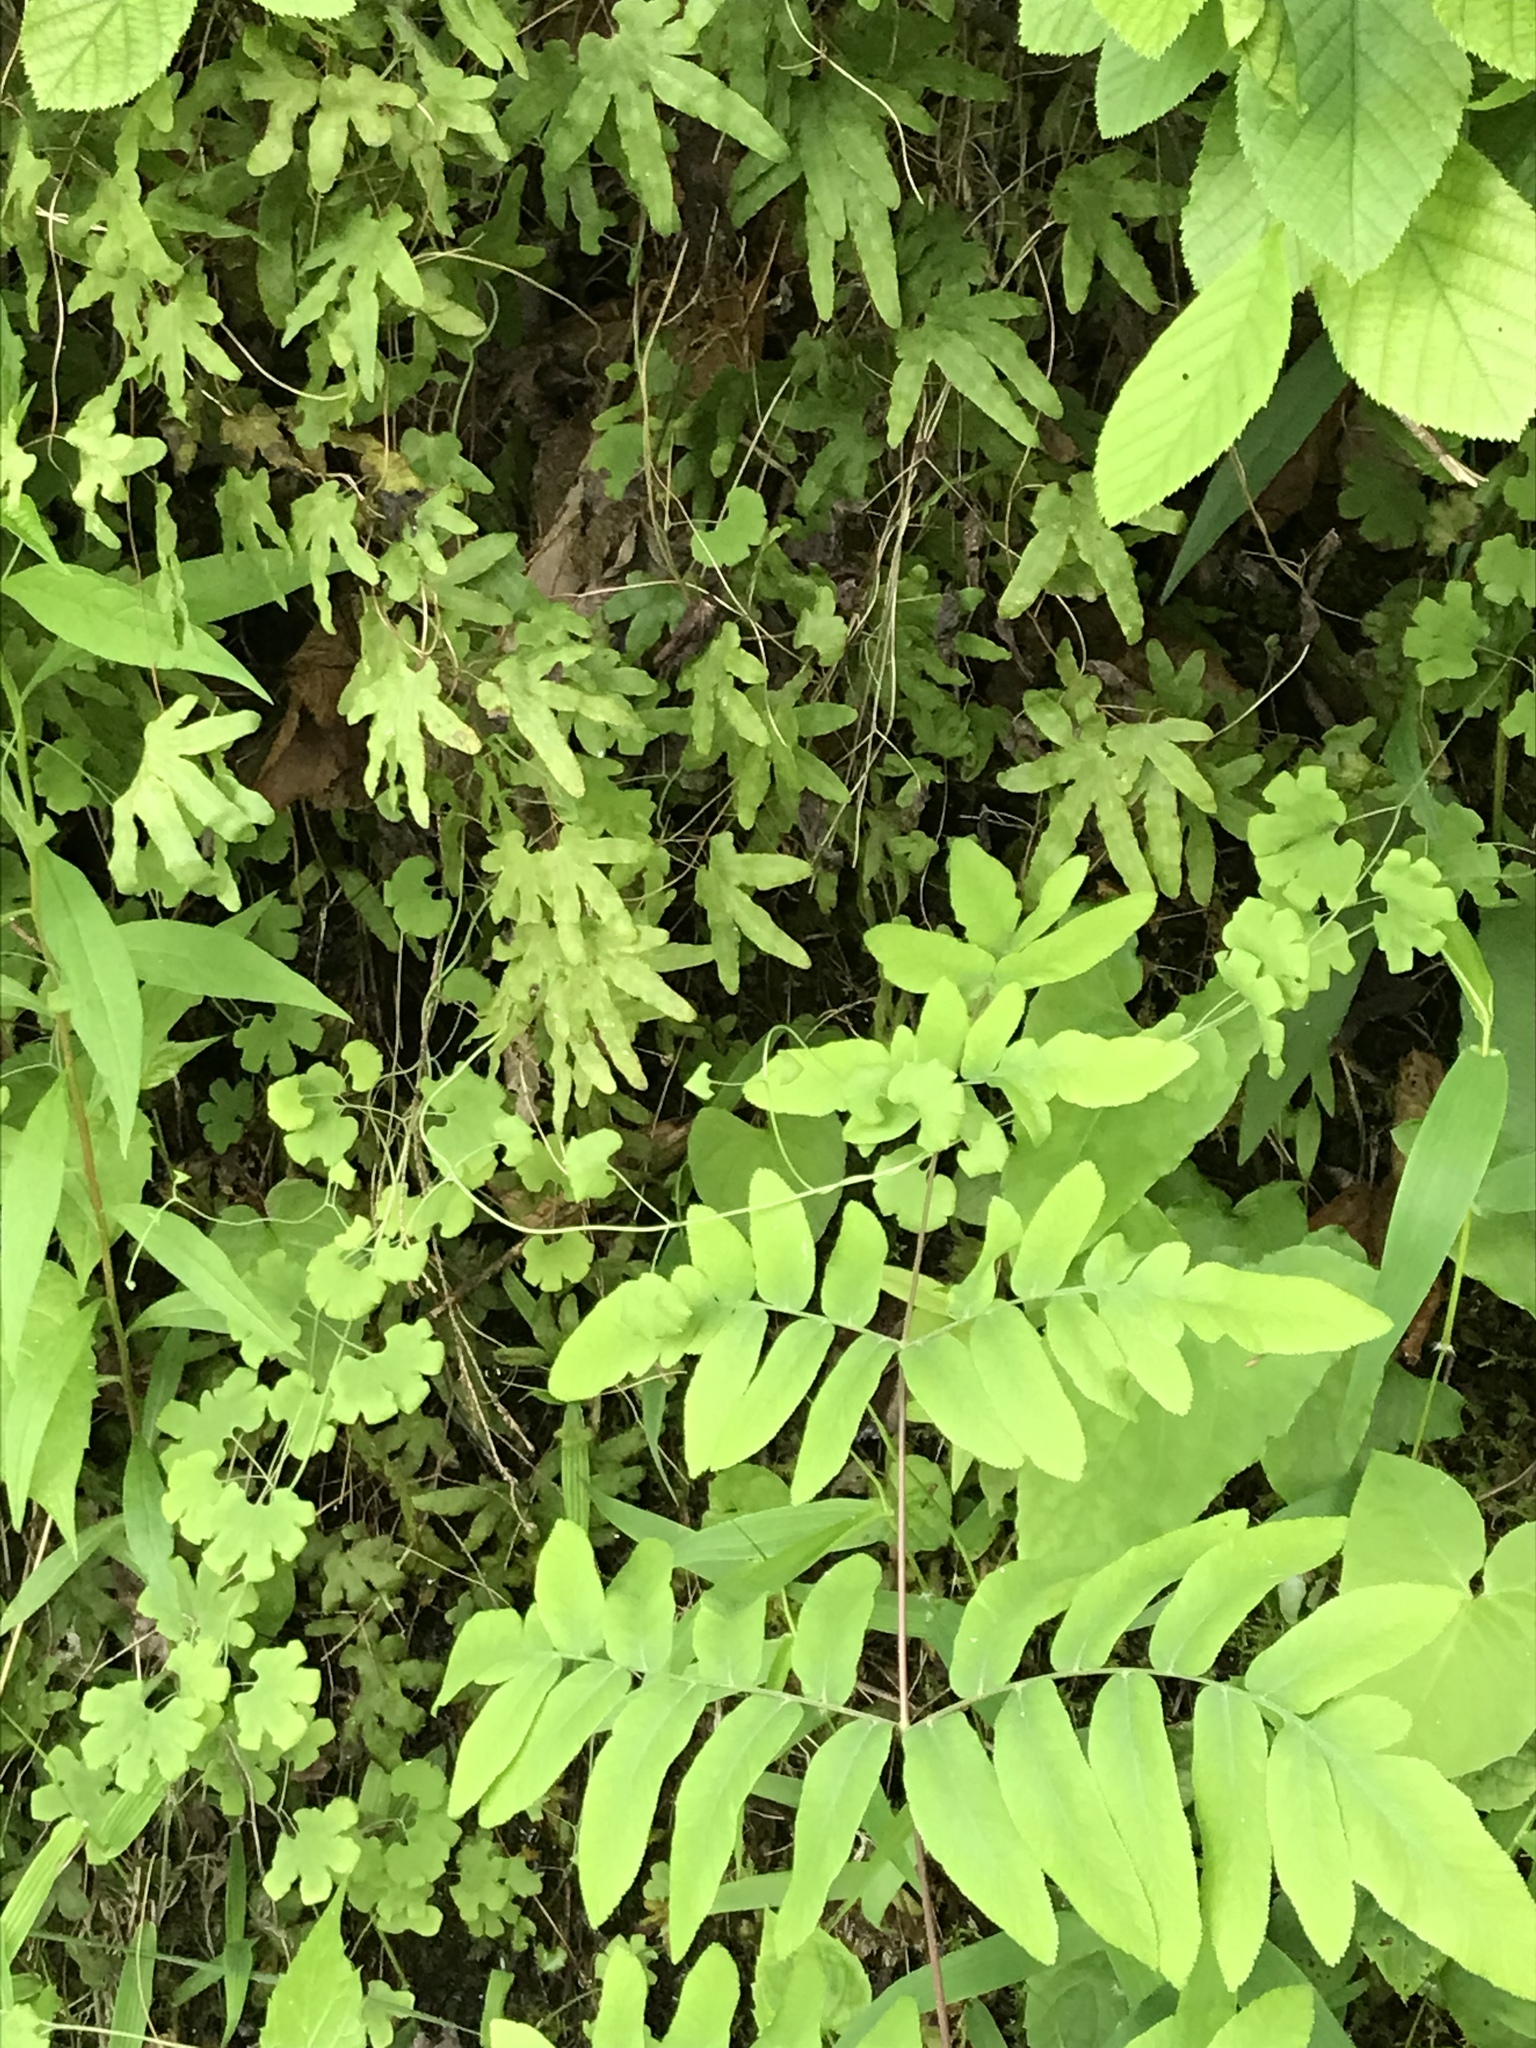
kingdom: Plantae
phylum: Tracheophyta
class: Polypodiopsida
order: Schizaeales
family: Lygodiaceae
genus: Lygodium
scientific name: Lygodium palmatum
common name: American climbing fern
